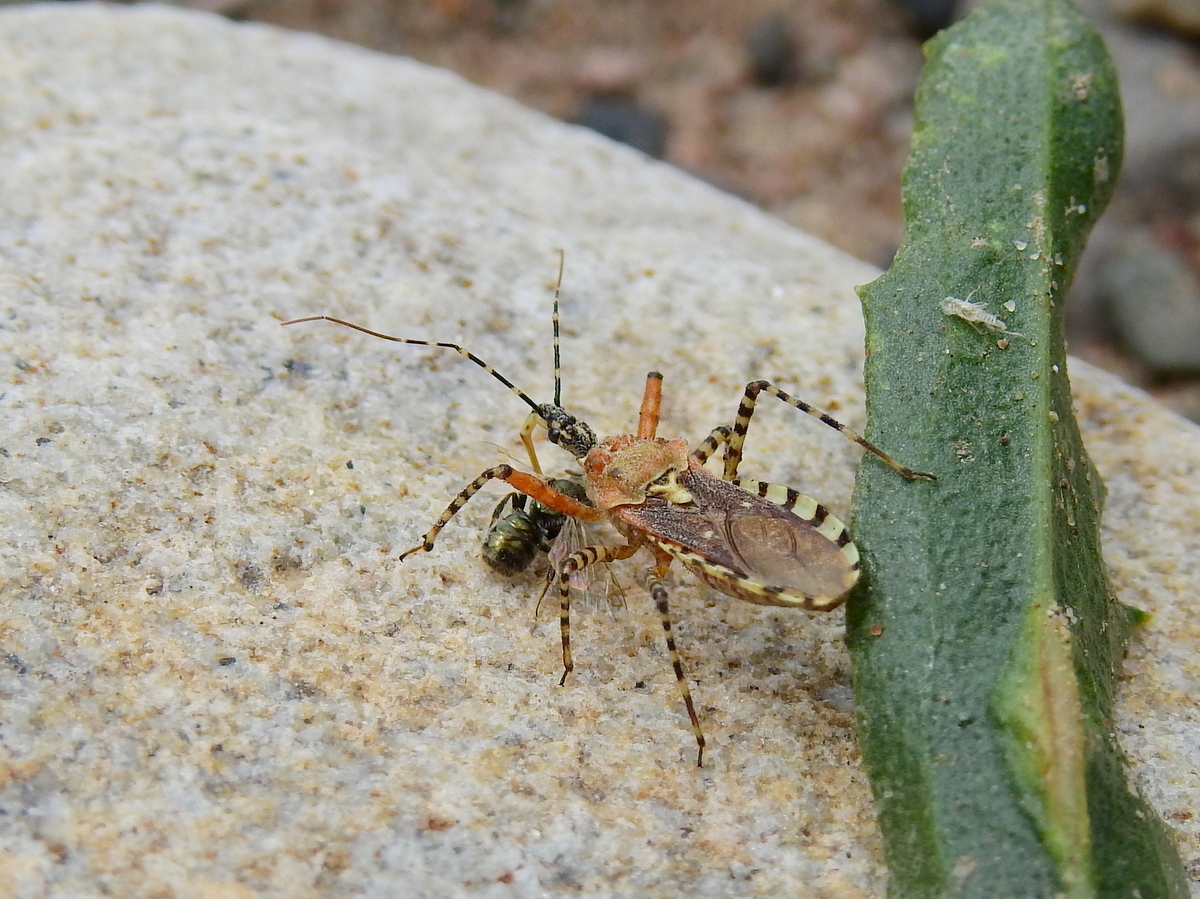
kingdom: Animalia
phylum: Arthropoda
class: Insecta
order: Hemiptera
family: Reduviidae
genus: Cosmoclopius
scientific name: Cosmoclopius nigroannulatus
